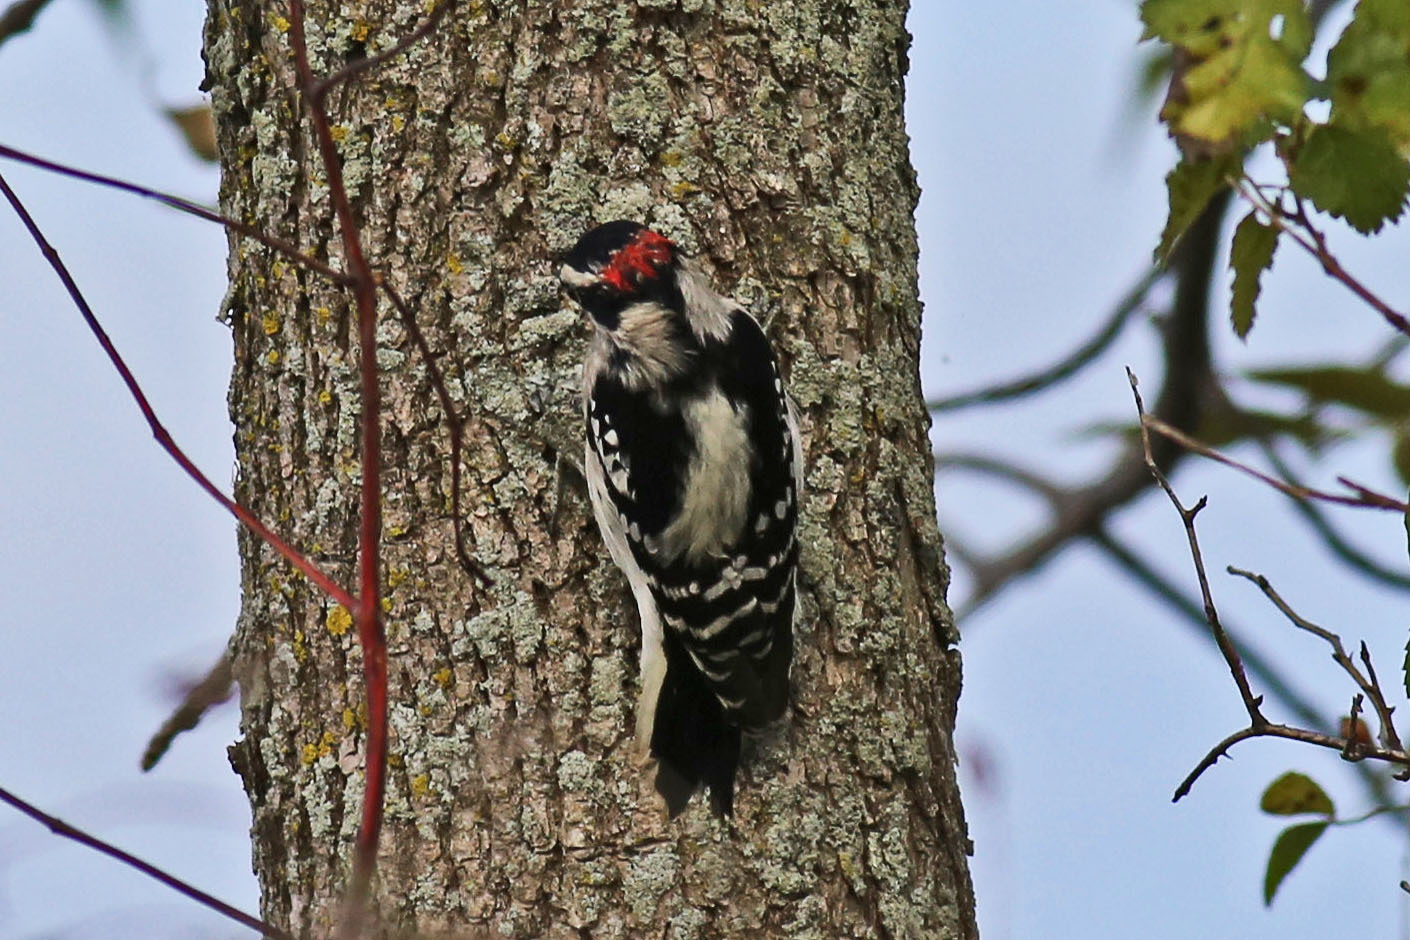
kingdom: Animalia
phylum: Chordata
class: Aves
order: Piciformes
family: Picidae
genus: Leuconotopicus
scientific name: Leuconotopicus villosus
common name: Hairy woodpecker
